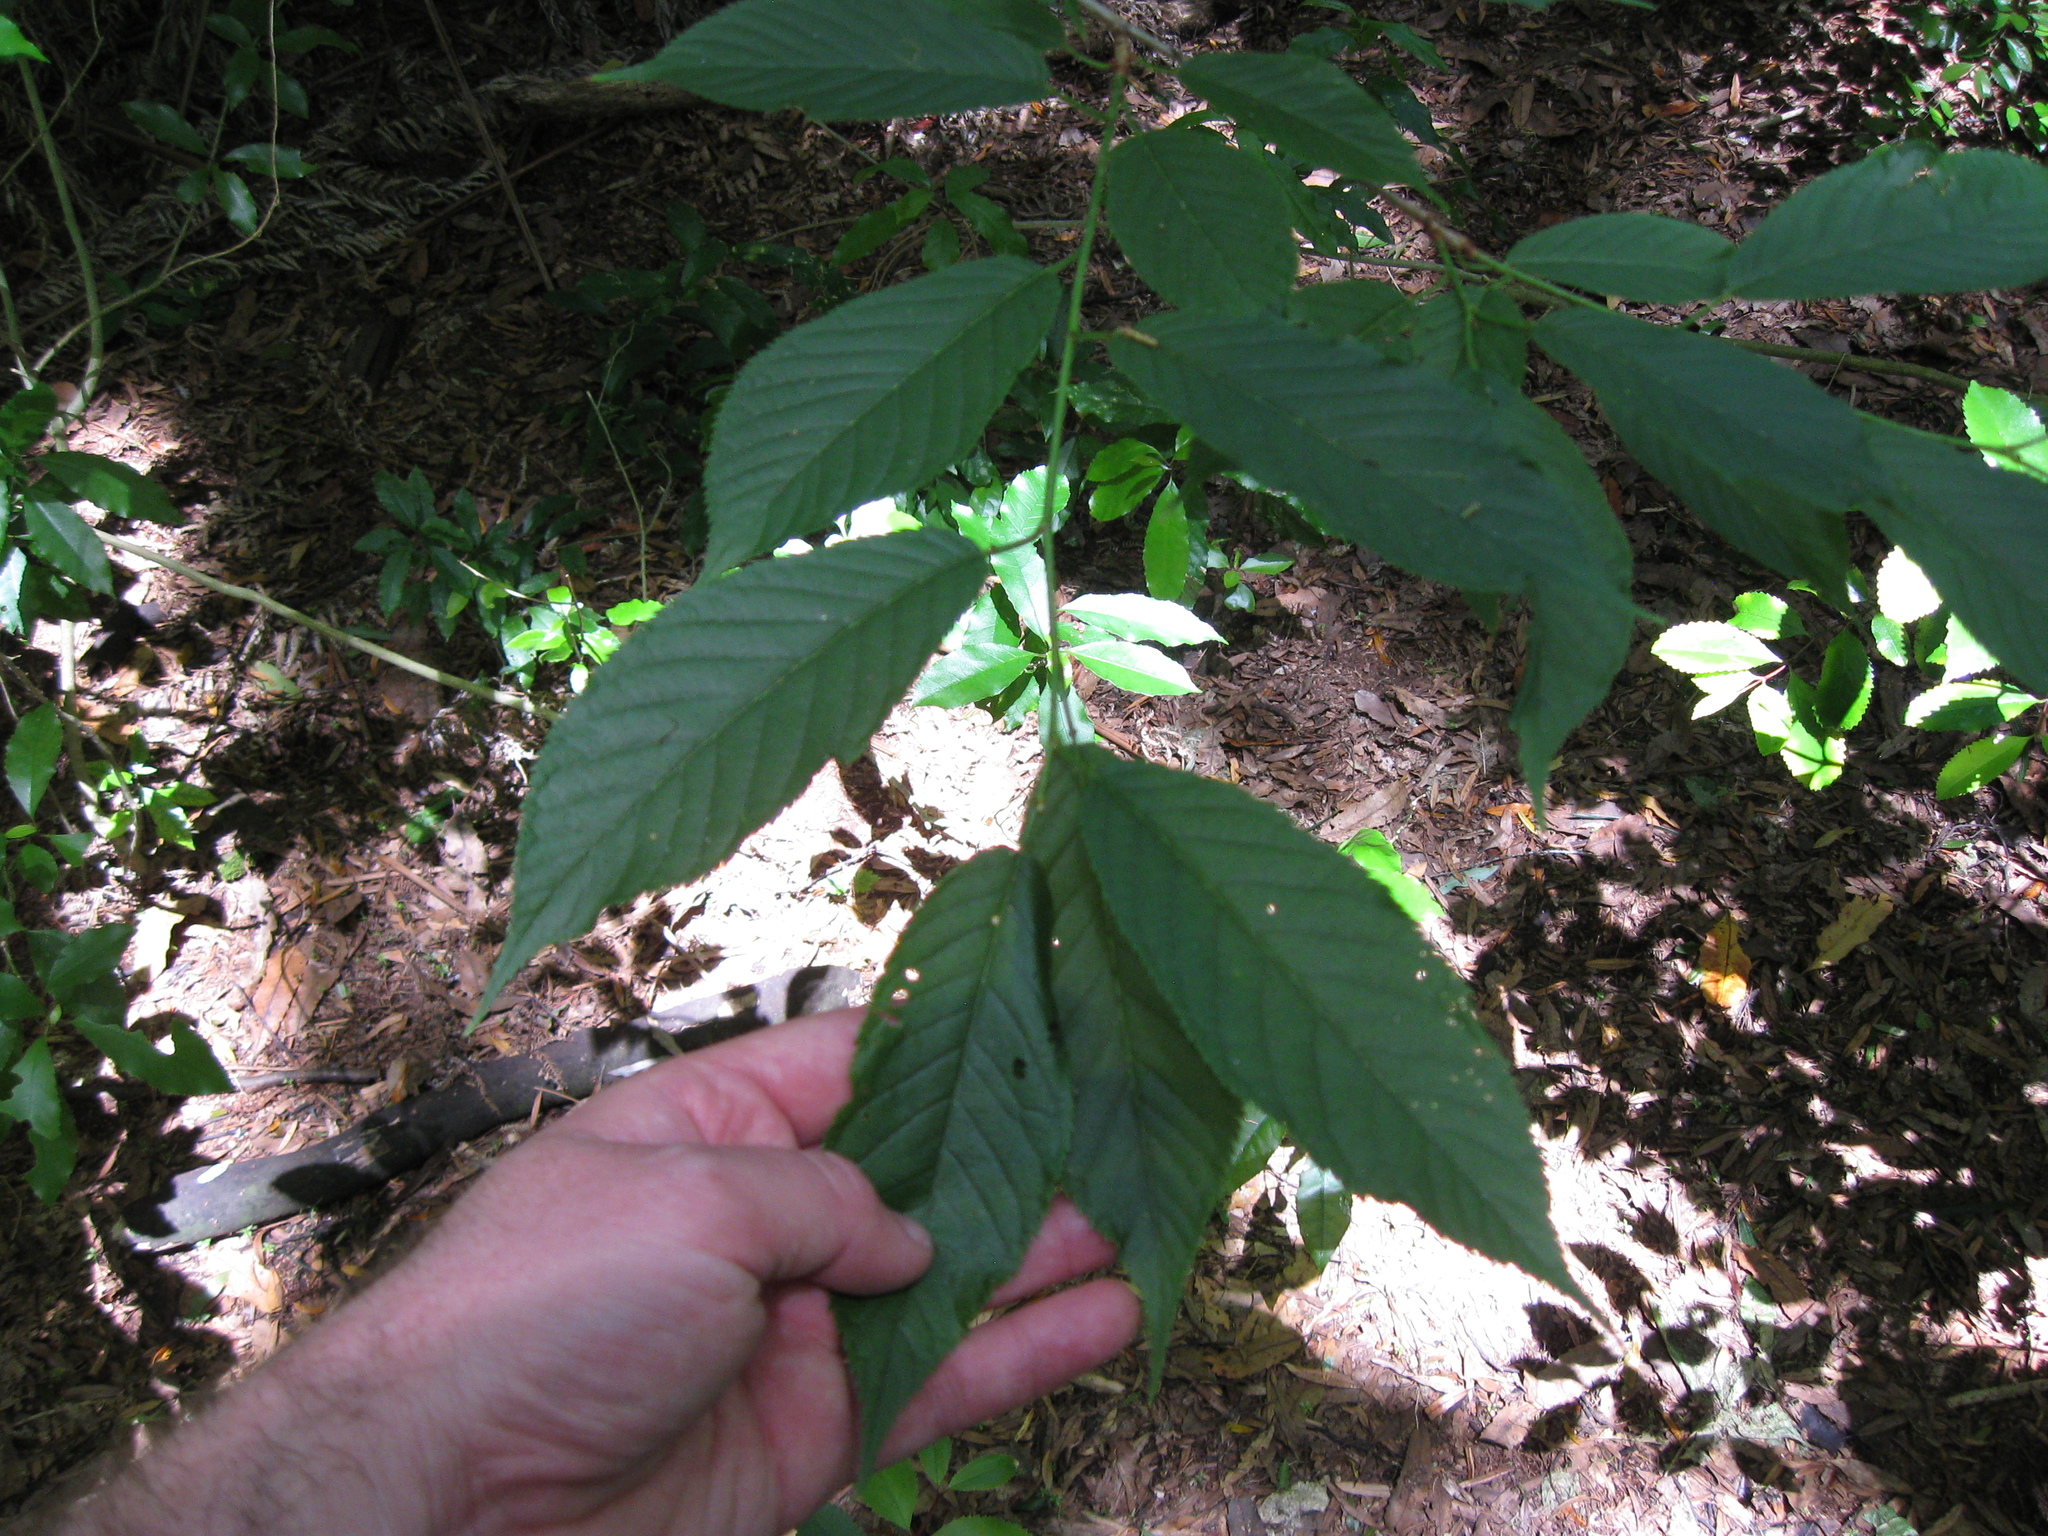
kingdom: Plantae
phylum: Tracheophyta
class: Magnoliopsida
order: Rosales
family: Rosaceae
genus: Prunus
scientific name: Prunus serrulata
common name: Japanese cherry
